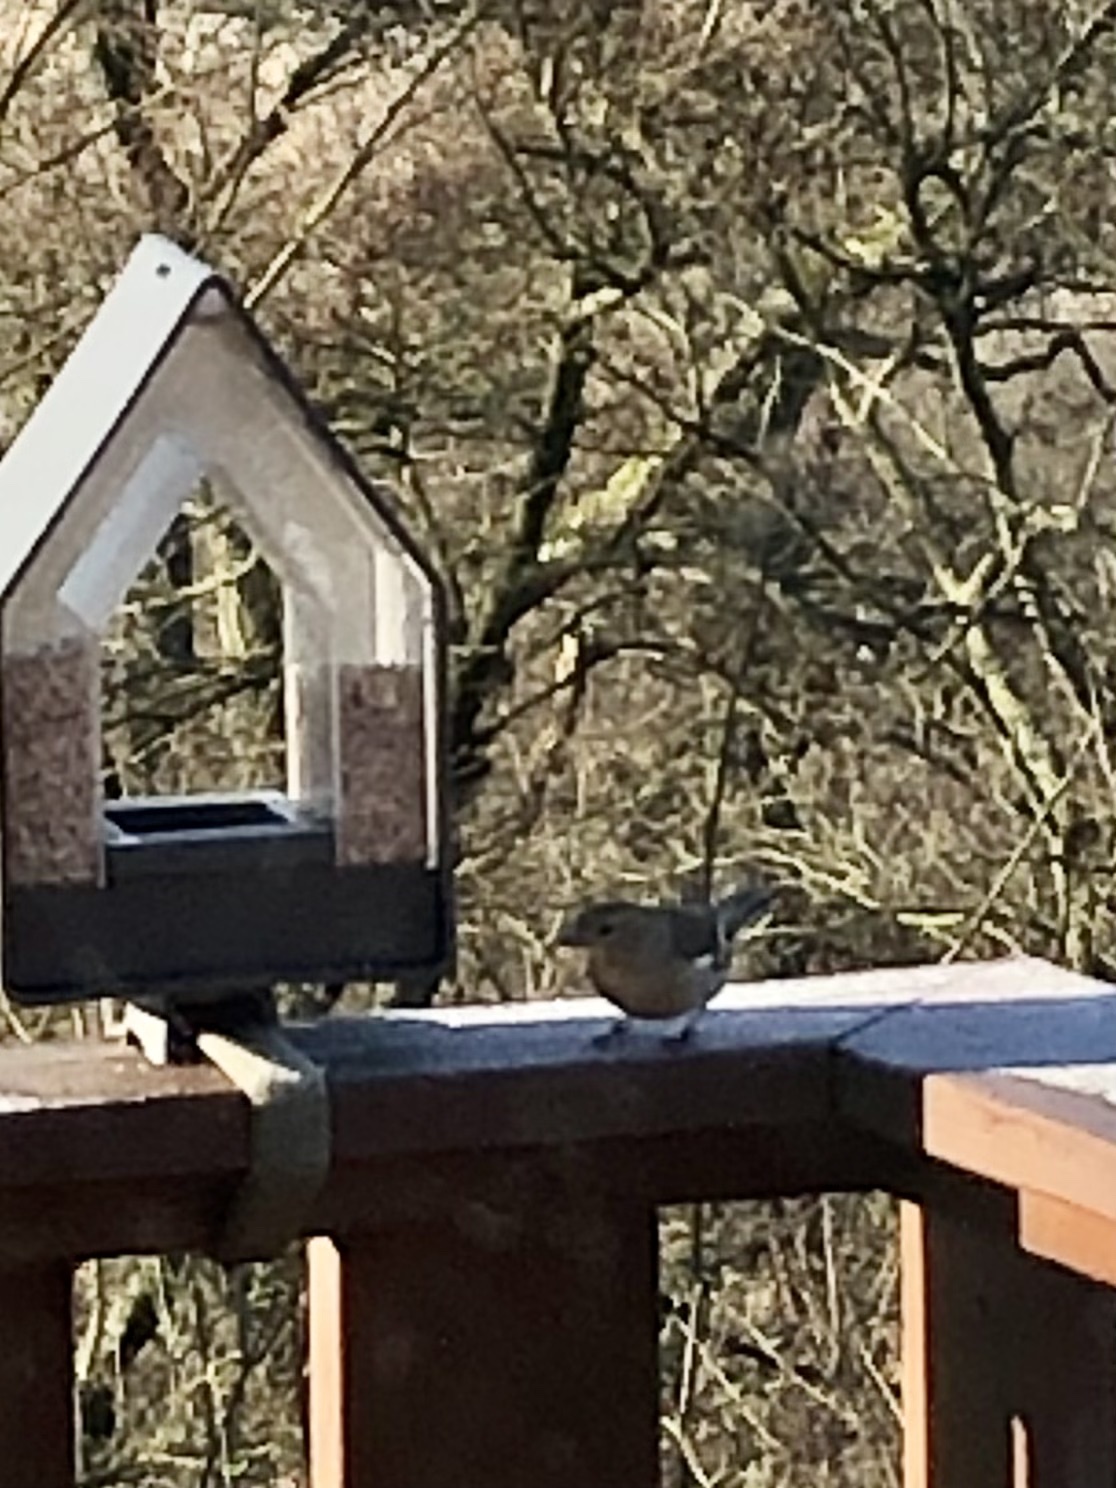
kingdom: Animalia
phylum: Chordata
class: Aves
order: Passeriformes
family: Fringillidae
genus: Fringilla
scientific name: Fringilla coelebs
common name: Common chaffinch
